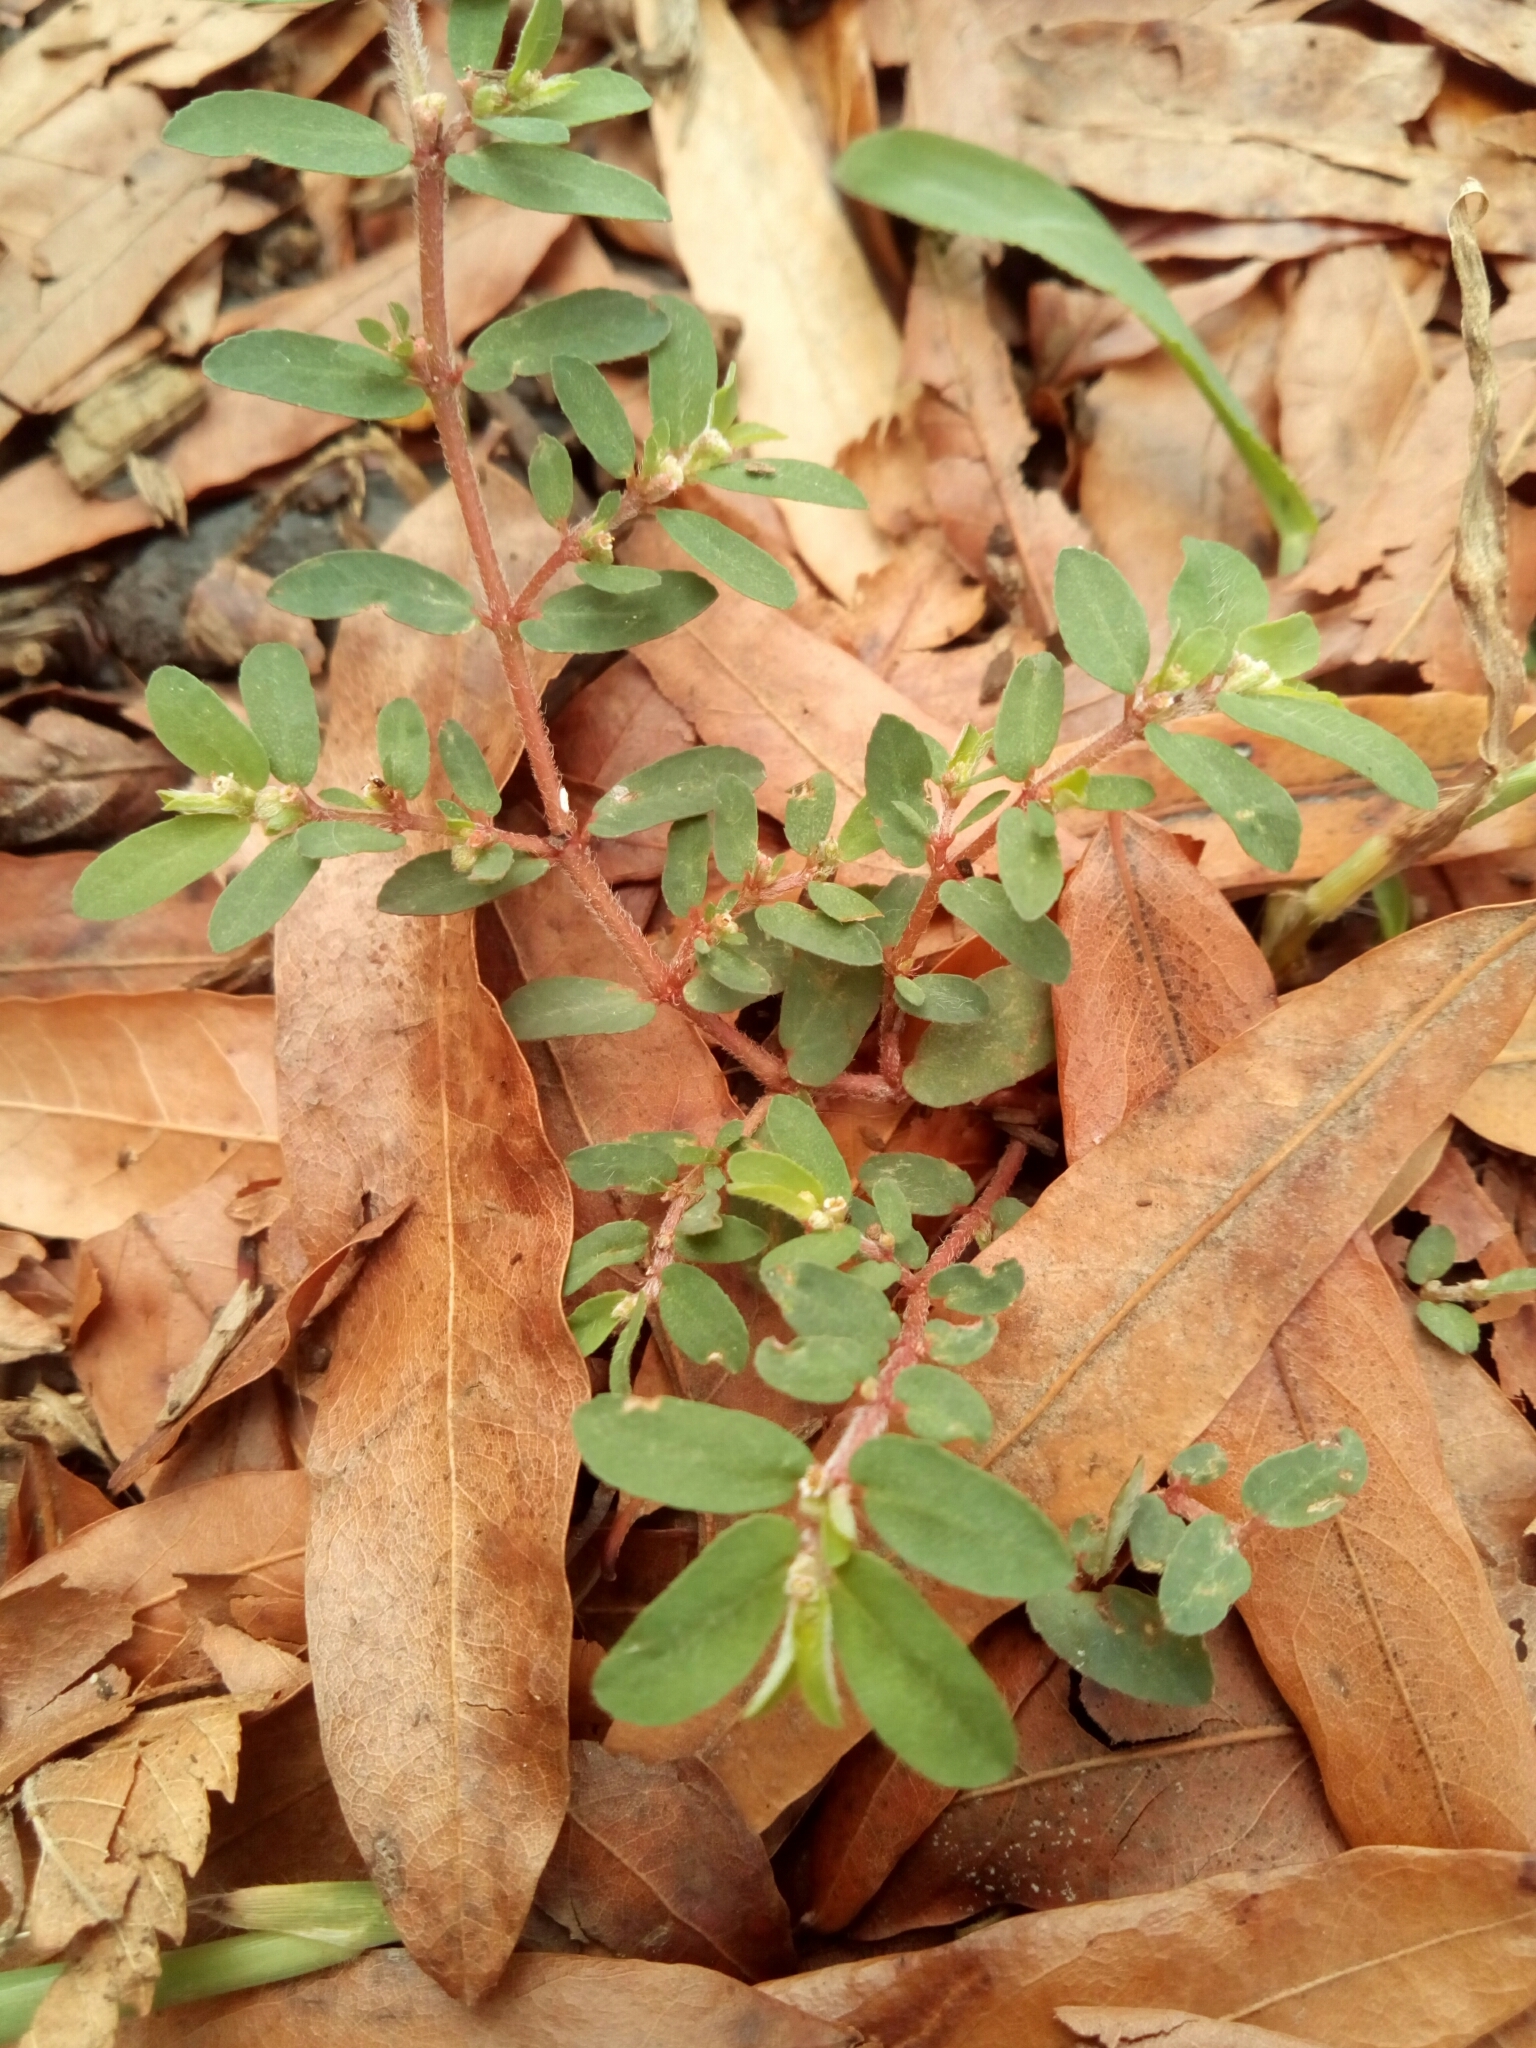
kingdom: Plantae
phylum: Tracheophyta
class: Magnoliopsida
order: Malpighiales
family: Euphorbiaceae
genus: Euphorbia
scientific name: Euphorbia maculata
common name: Spotted spurge
